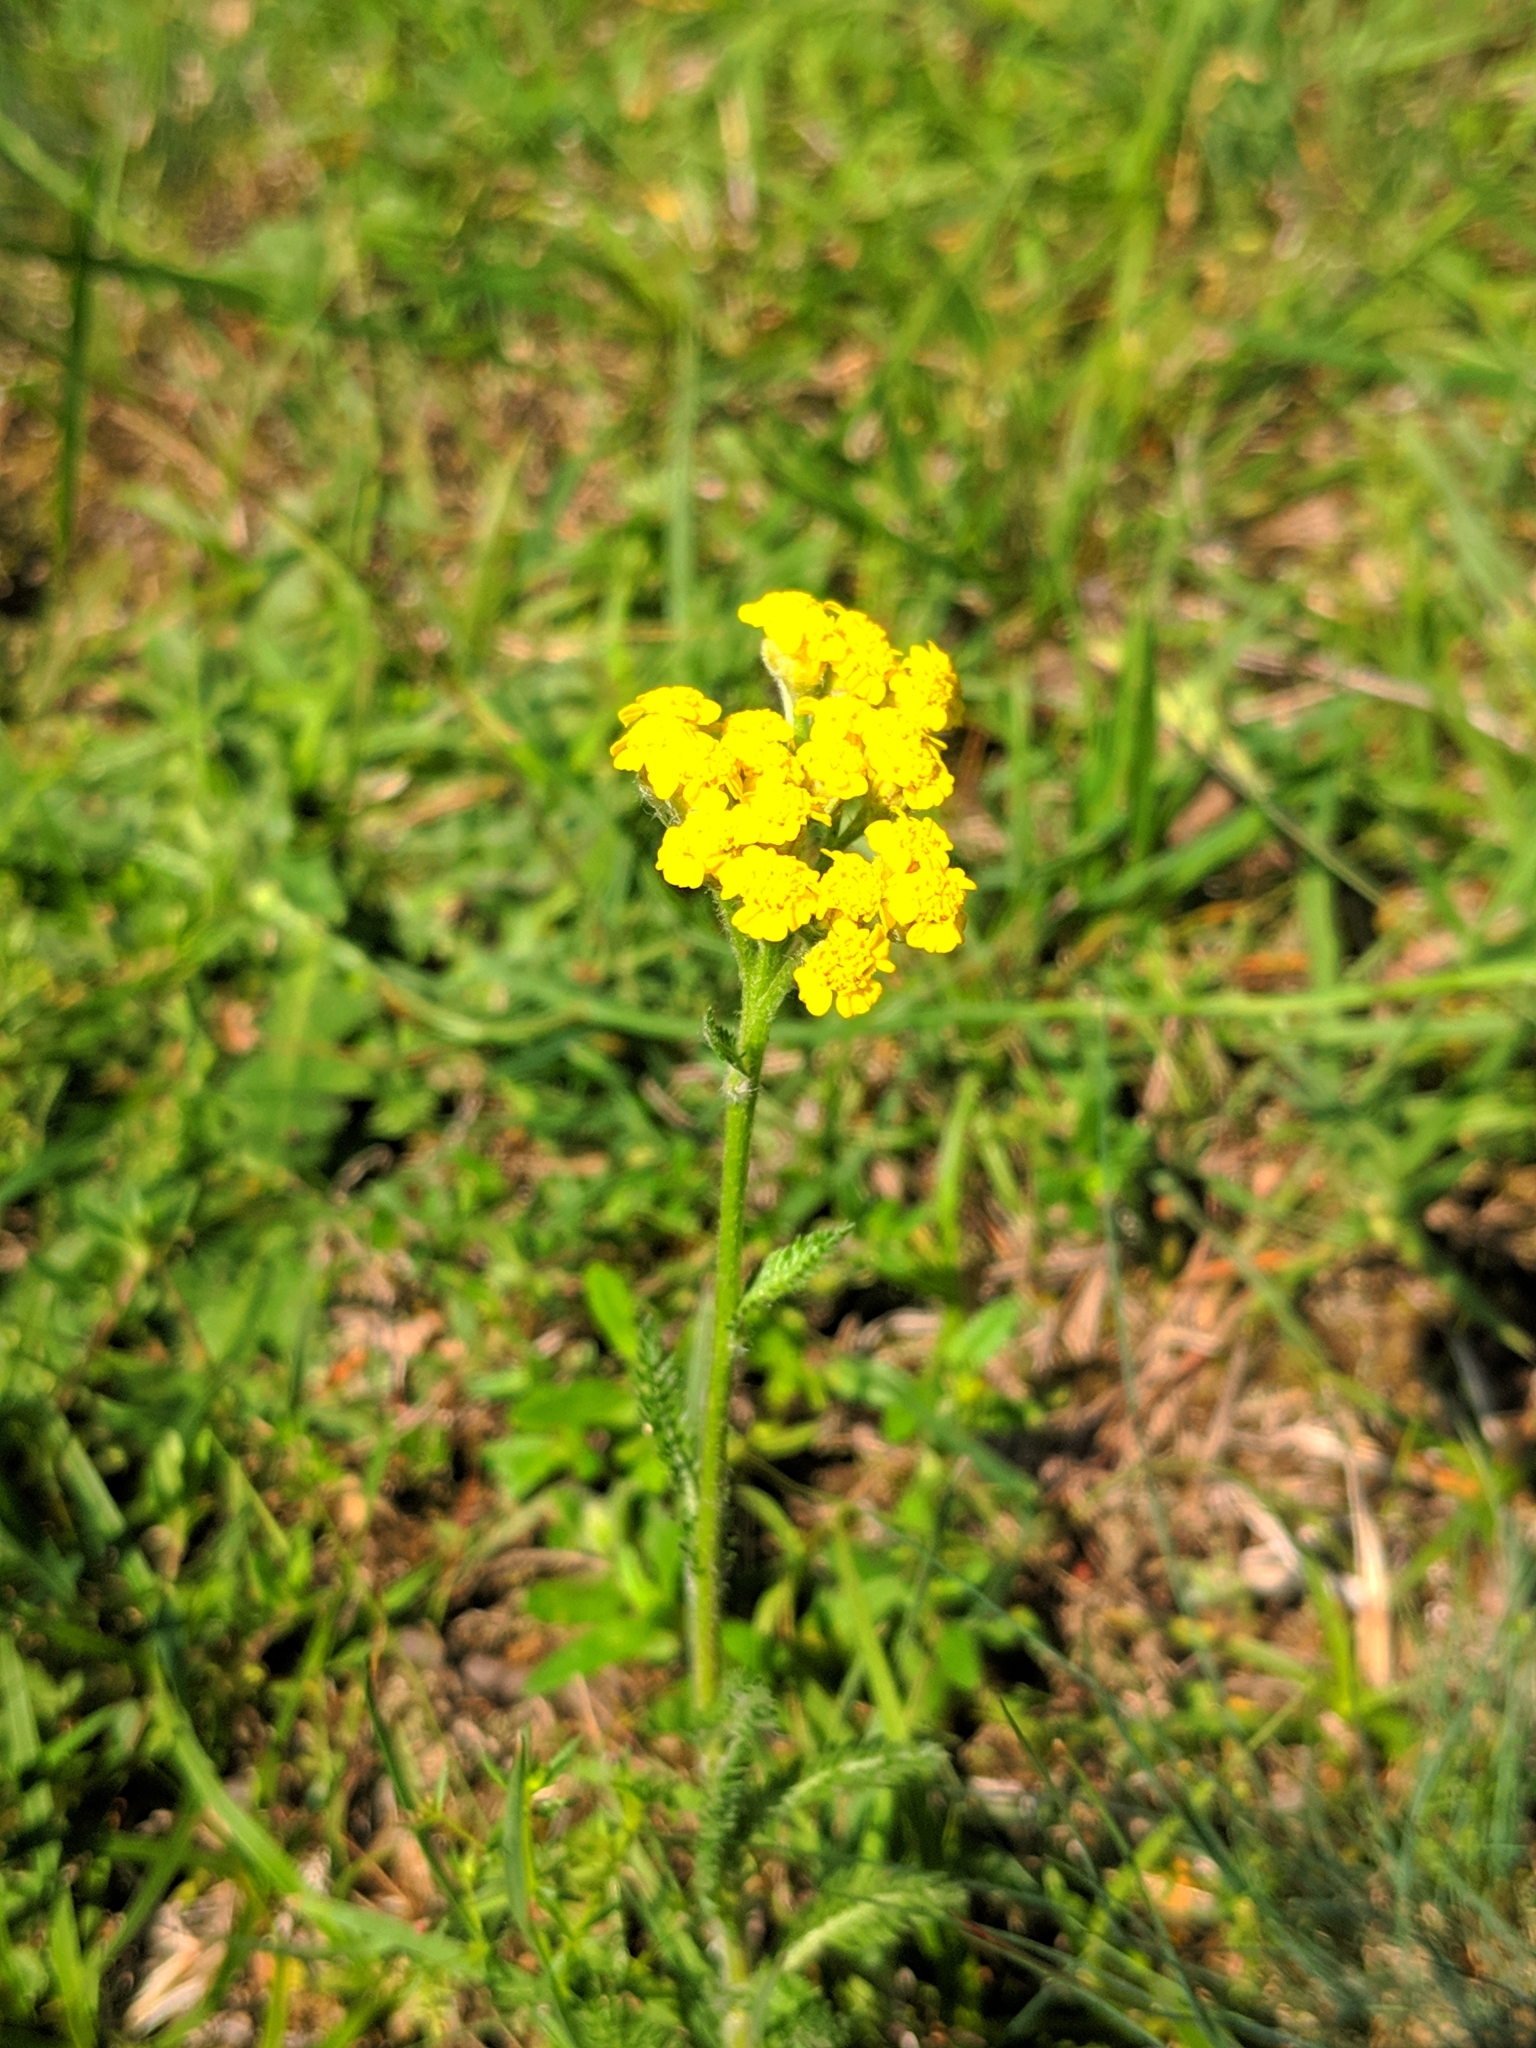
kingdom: Plantae
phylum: Tracheophyta
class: Magnoliopsida
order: Asterales
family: Asteraceae
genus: Achillea
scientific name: Achillea tomentosa
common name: Yellow milfoil
